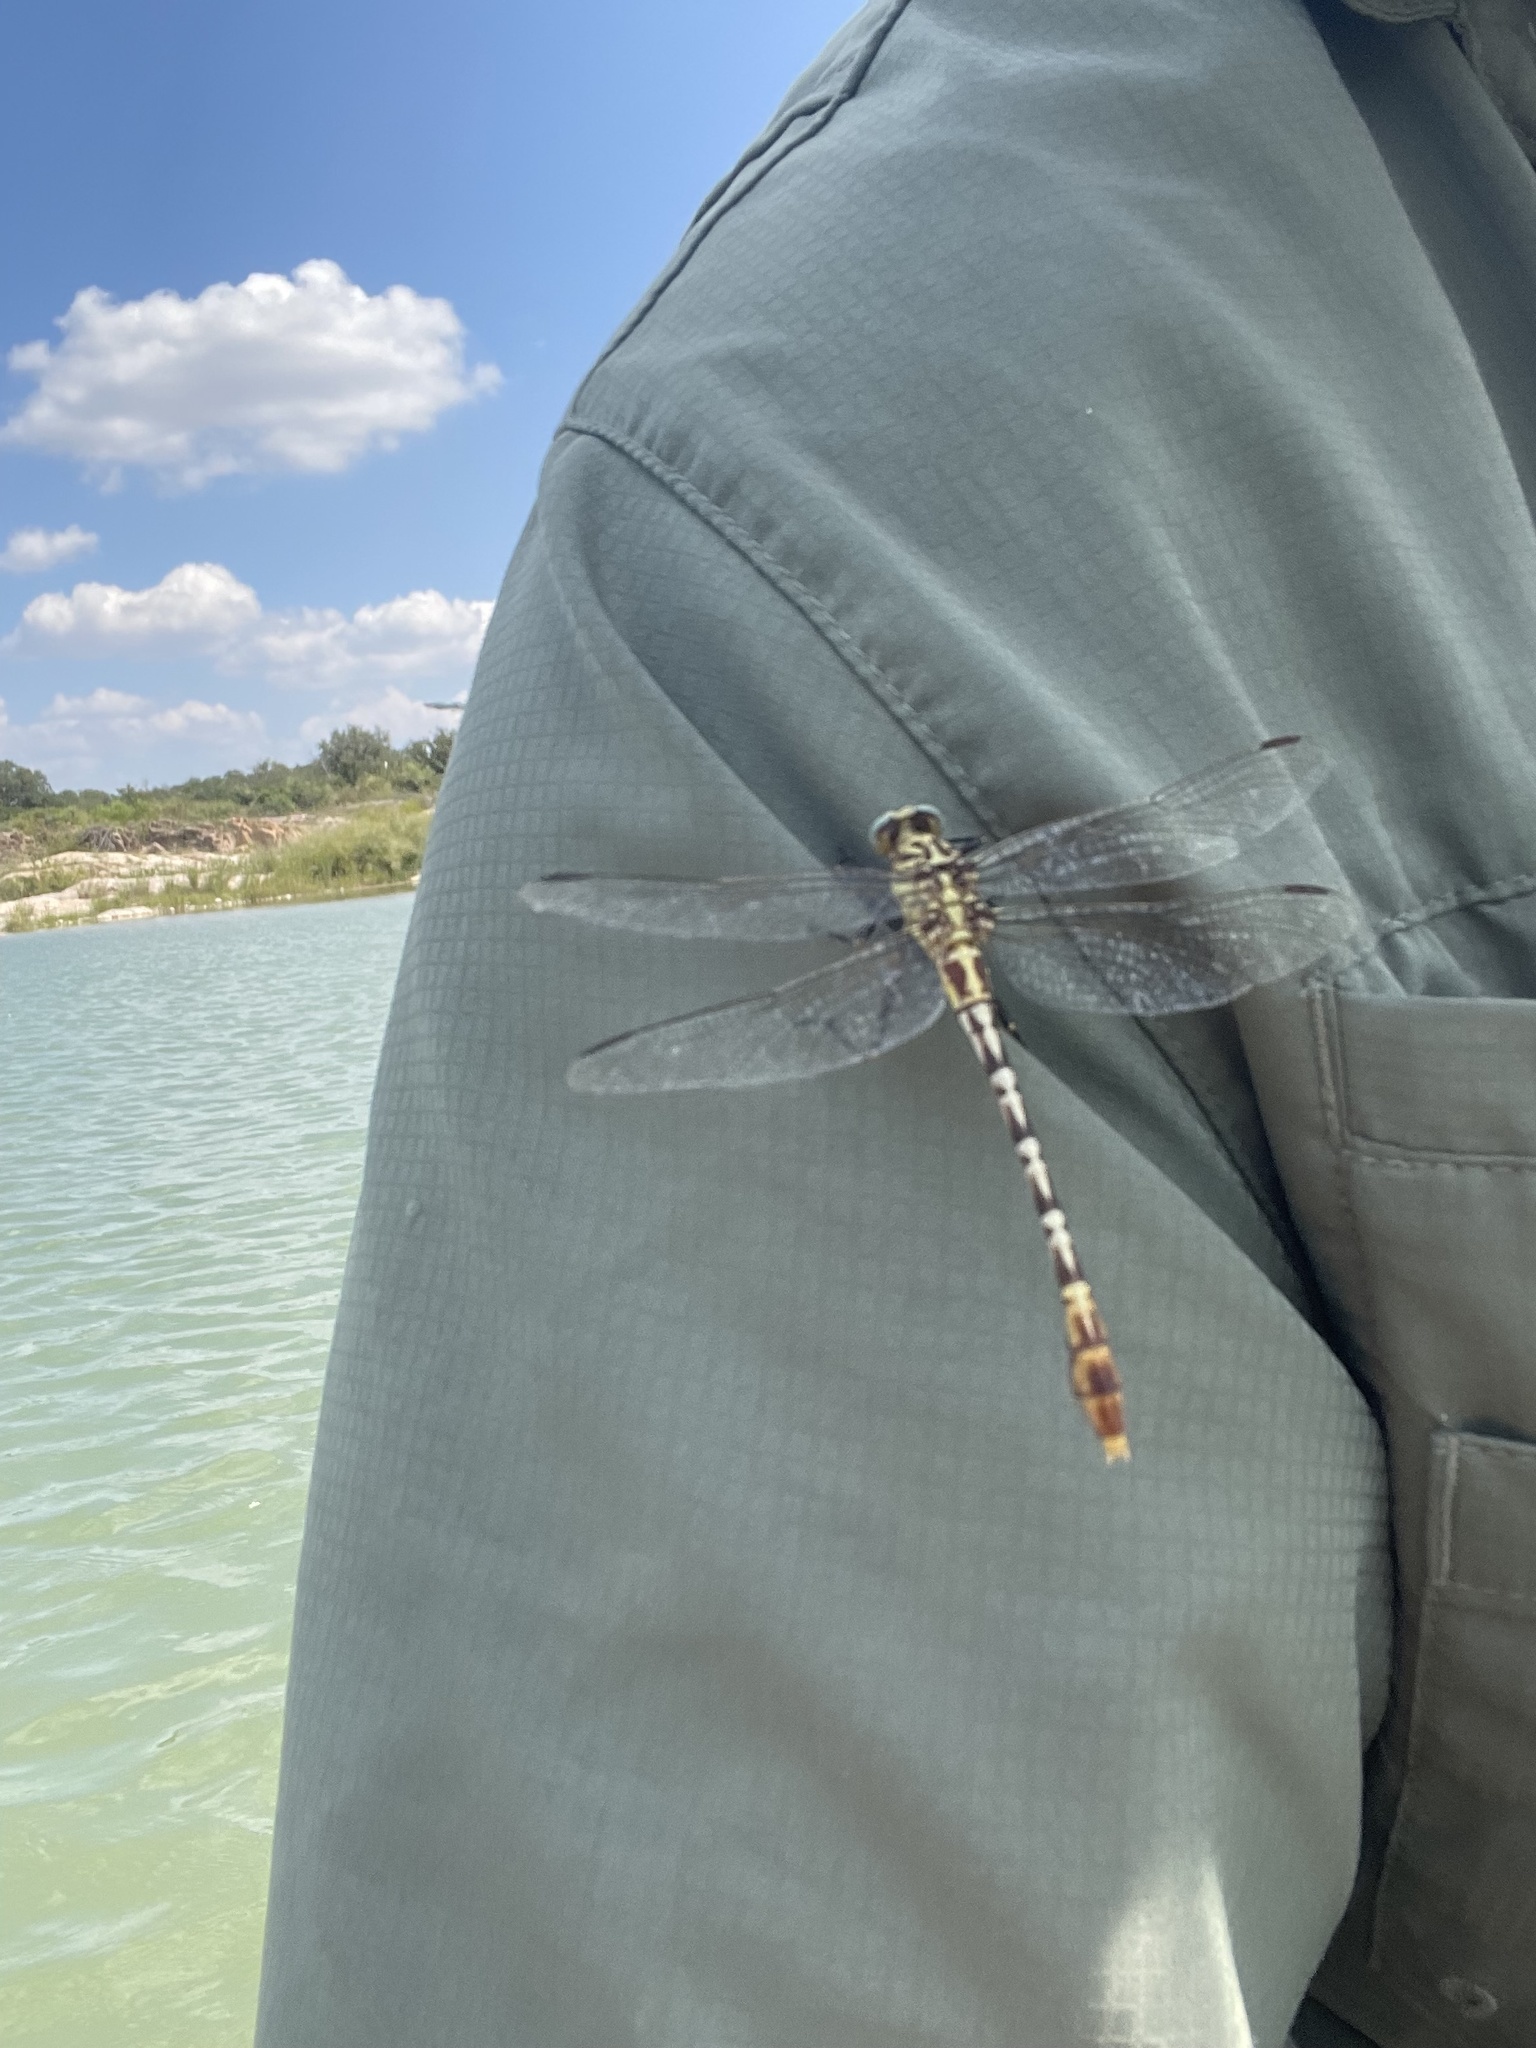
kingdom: Animalia
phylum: Arthropoda
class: Insecta
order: Odonata
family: Gomphidae
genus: Dromogomphus
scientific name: Dromogomphus spoliatus
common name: Flag-tailed spinyleg
